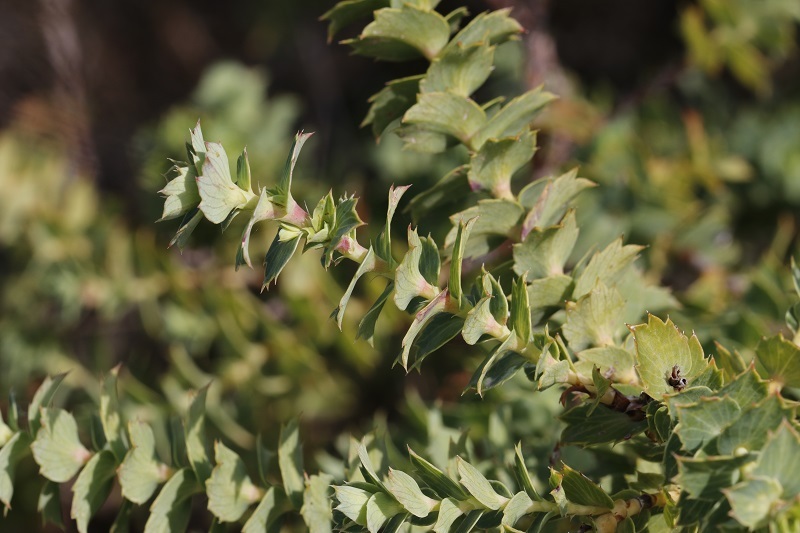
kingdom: Plantae
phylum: Tracheophyta
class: Magnoliopsida
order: Rosales
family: Rosaceae
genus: Cliffortia
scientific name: Cliffortia ilicifolia
